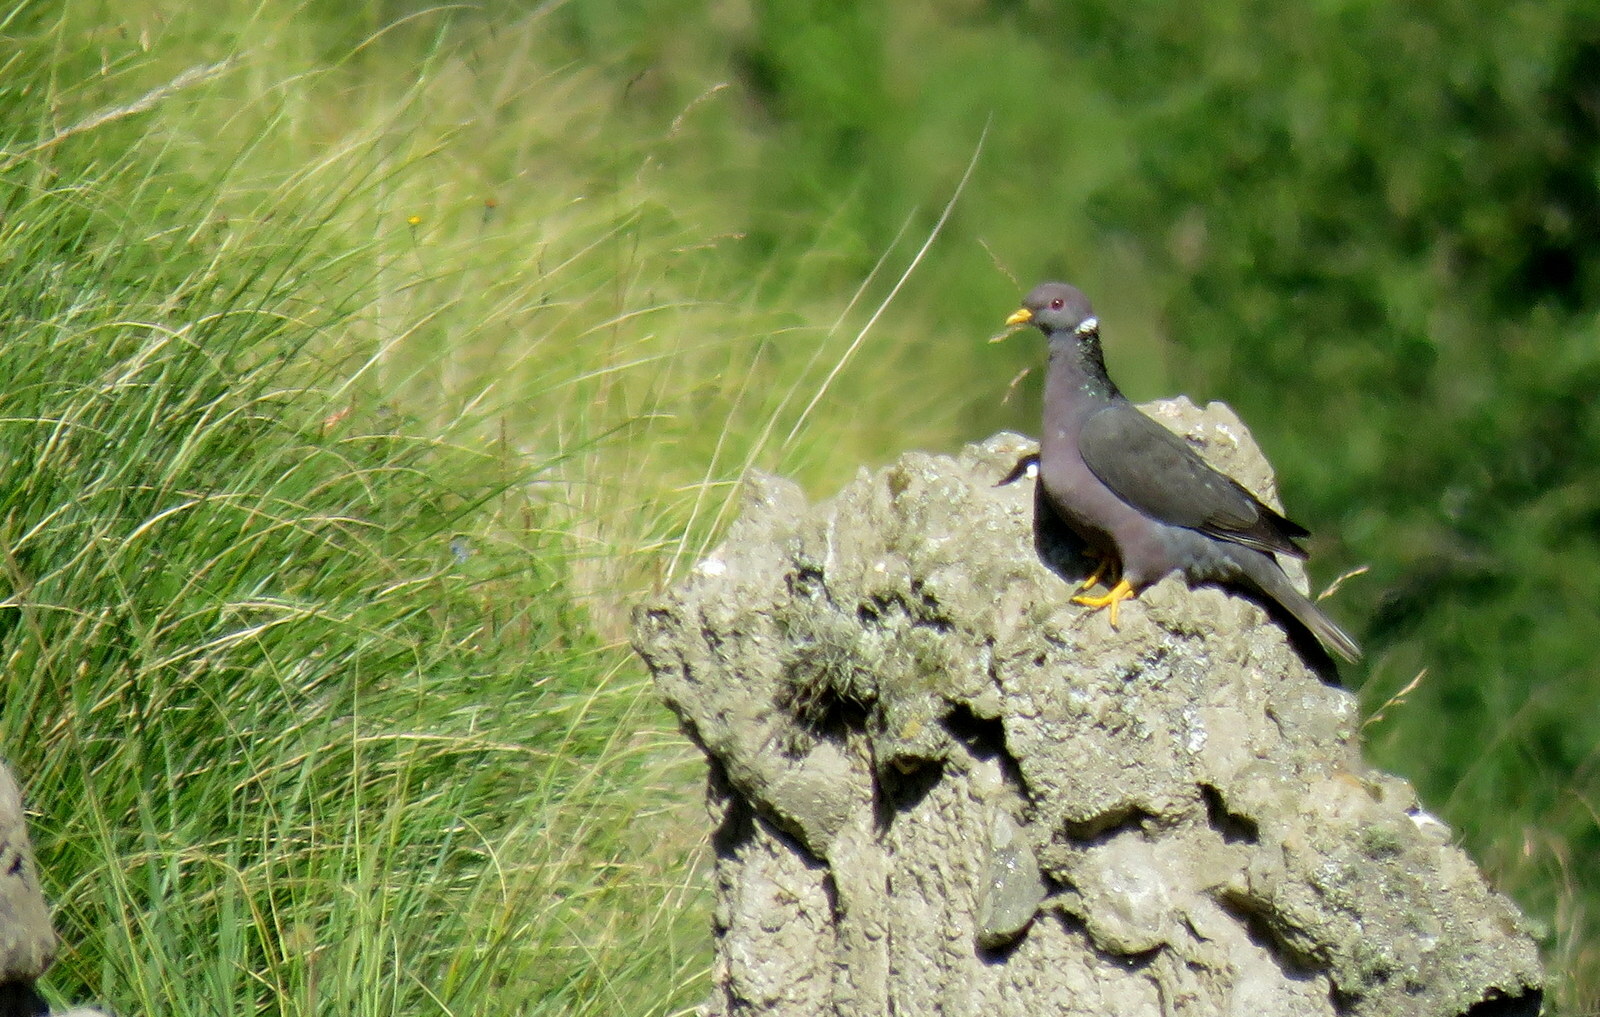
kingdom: Animalia
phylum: Chordata
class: Aves
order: Columbiformes
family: Columbidae
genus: Patagioenas
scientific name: Patagioenas fasciata
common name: Band-tailed pigeon
